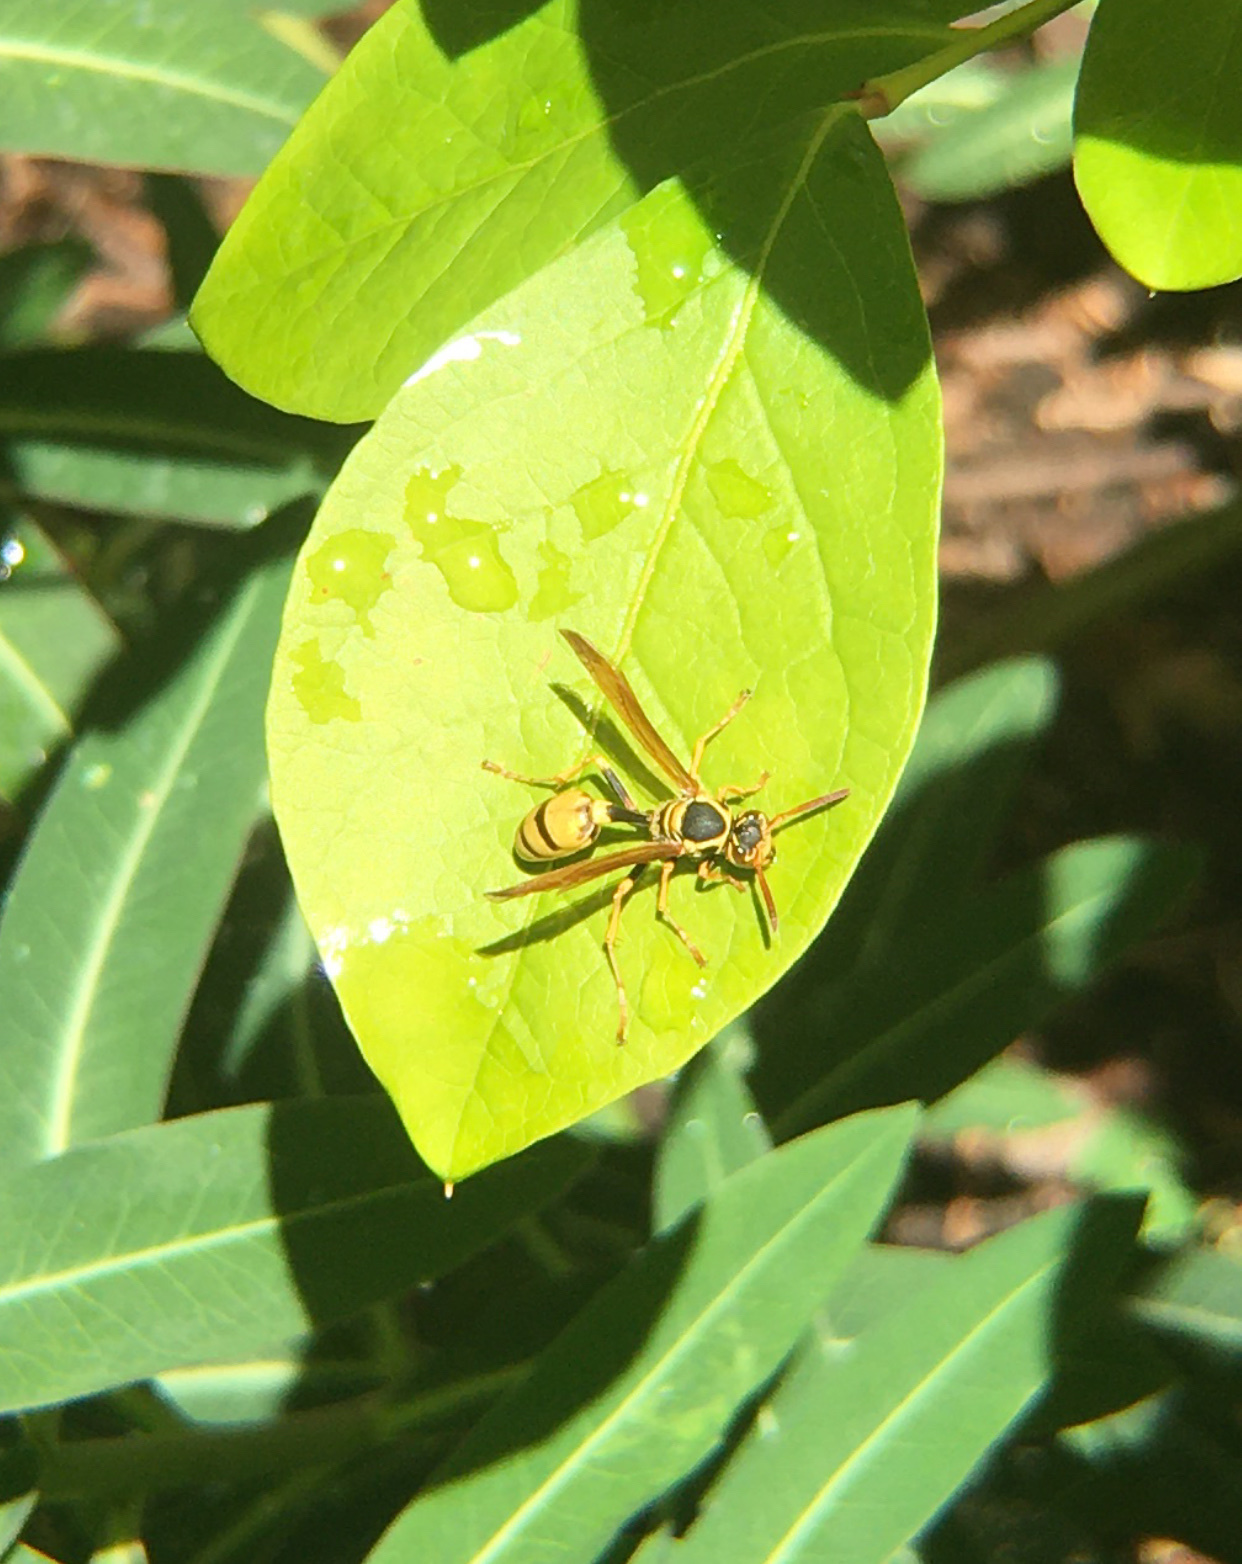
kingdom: Animalia
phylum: Arthropoda
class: Insecta
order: Hymenoptera
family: Vespidae
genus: Mischocyttarus
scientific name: Mischocyttarus flavitarsis
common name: Wasp
